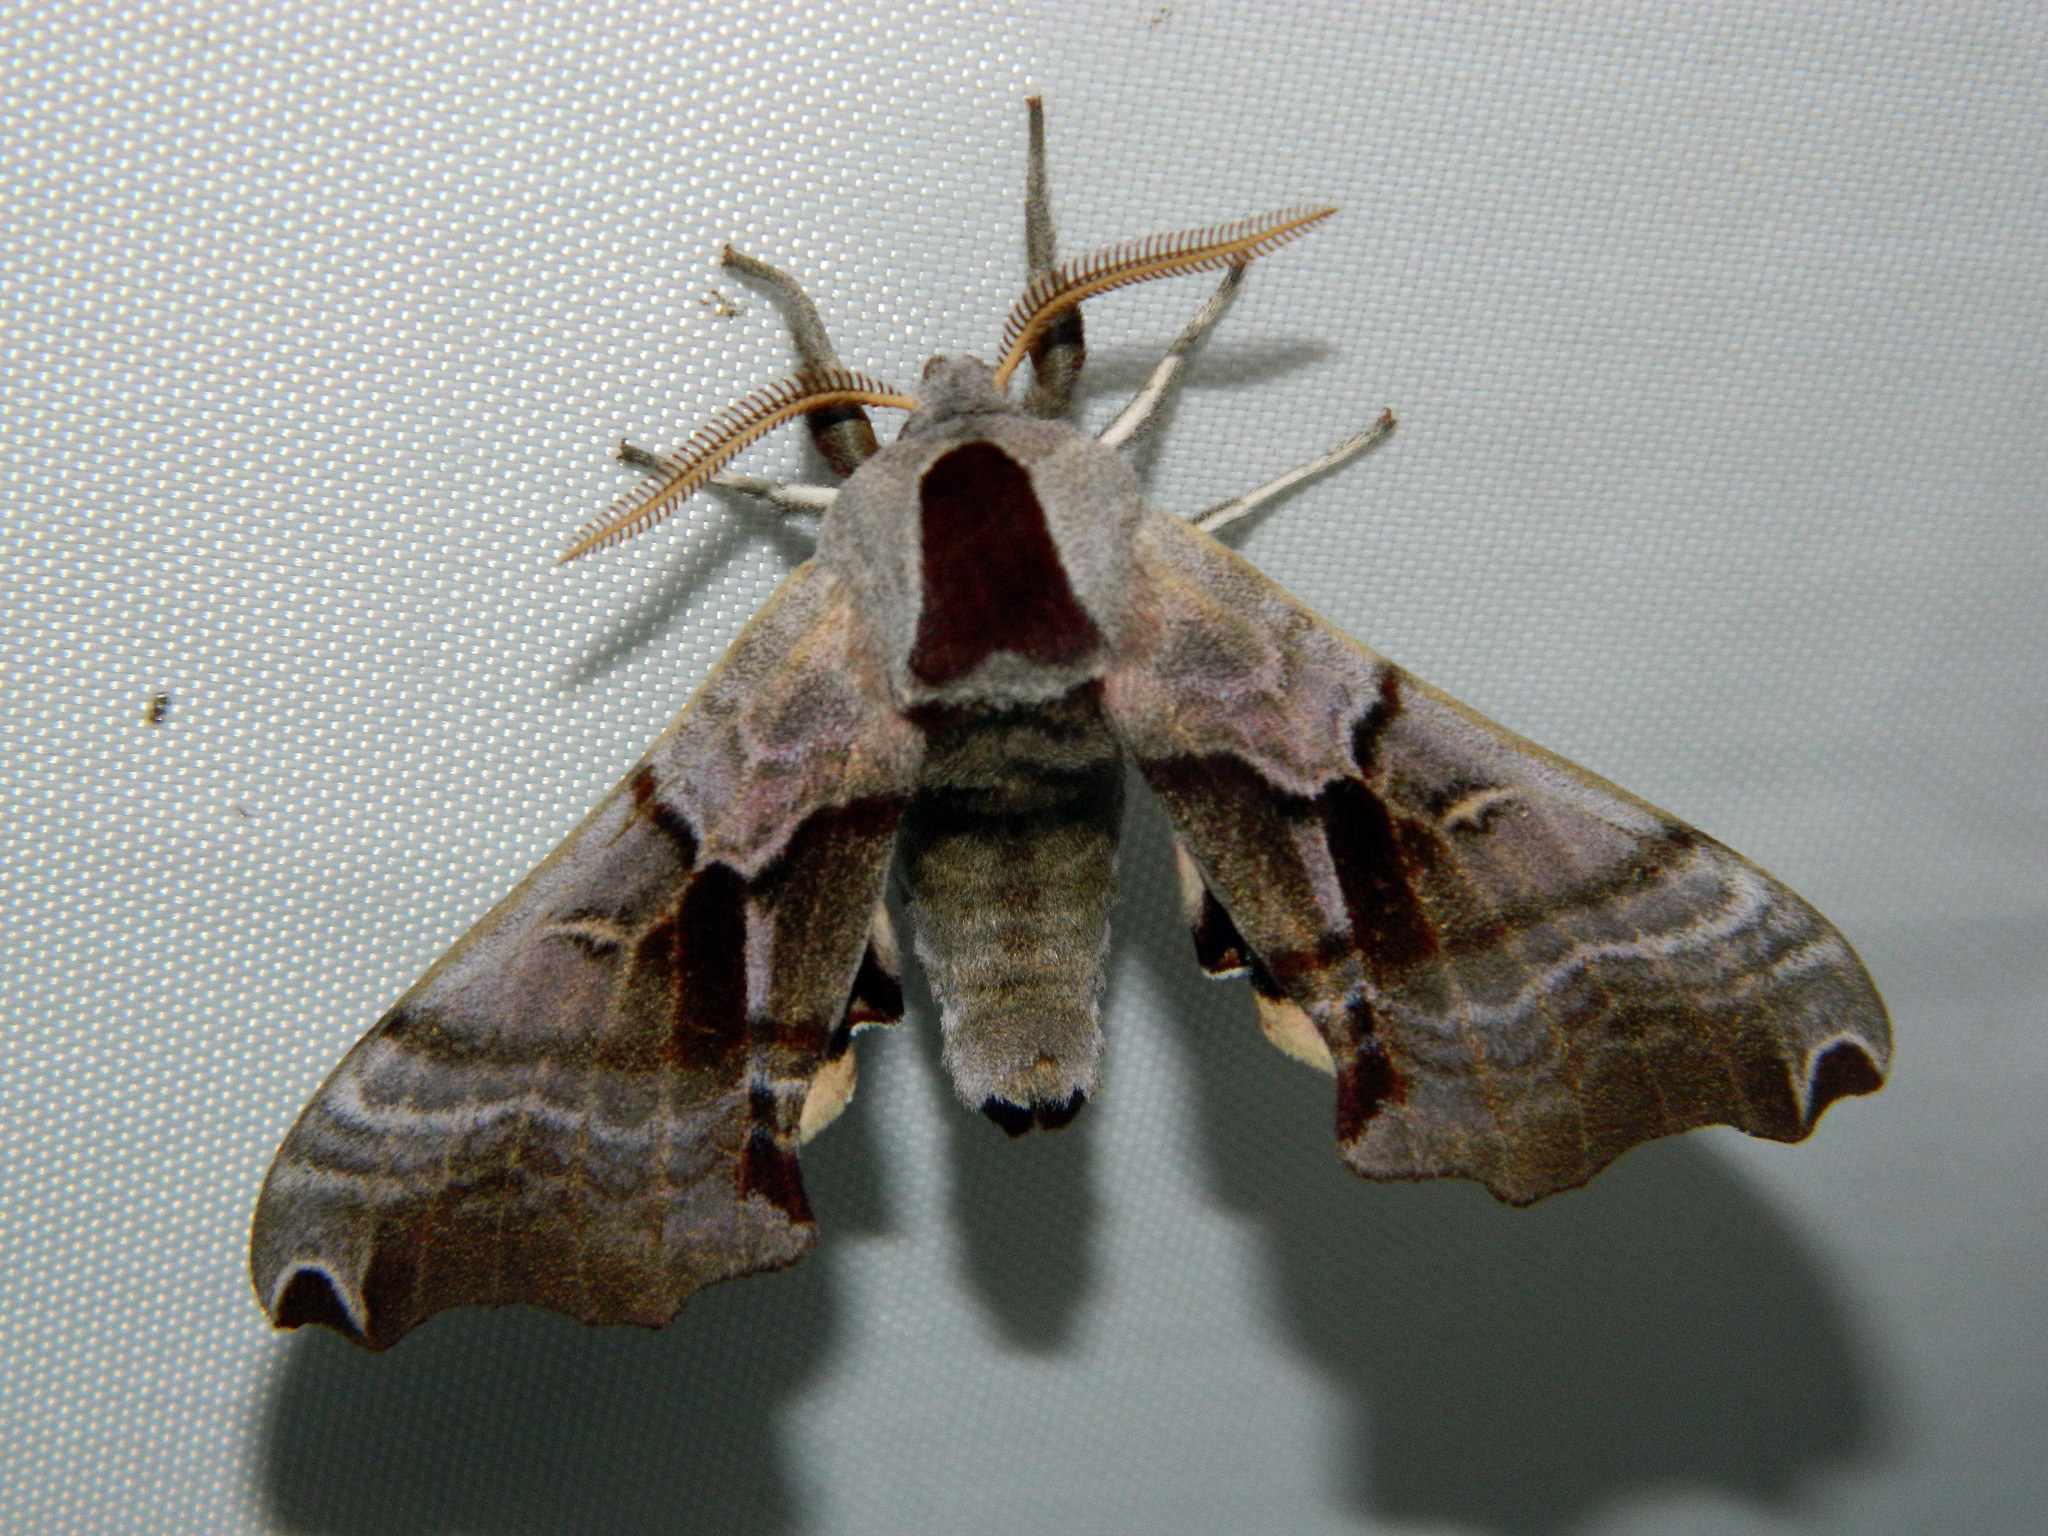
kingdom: Animalia
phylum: Arthropoda
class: Insecta
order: Lepidoptera
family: Sphingidae
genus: Smerinthus
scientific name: Smerinthus jamaicensis
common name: Twin spotted sphinx
